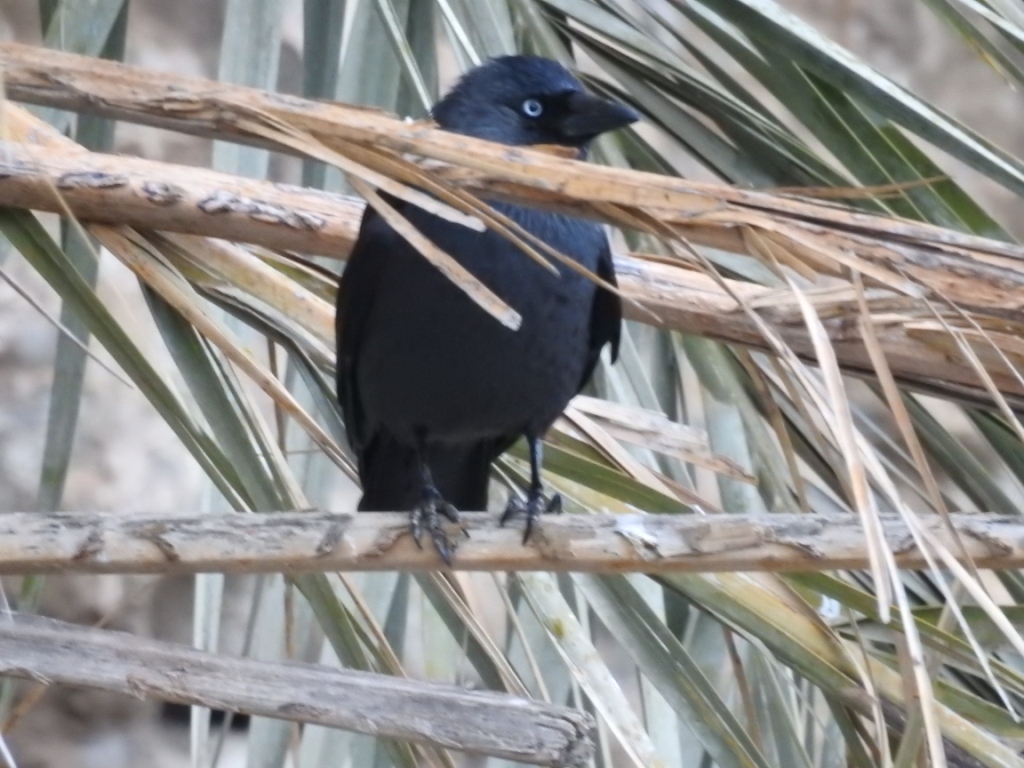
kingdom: Animalia
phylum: Chordata
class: Aves
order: Passeriformes
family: Corvidae
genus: Coloeus
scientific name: Coloeus monedula
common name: Western jackdaw
